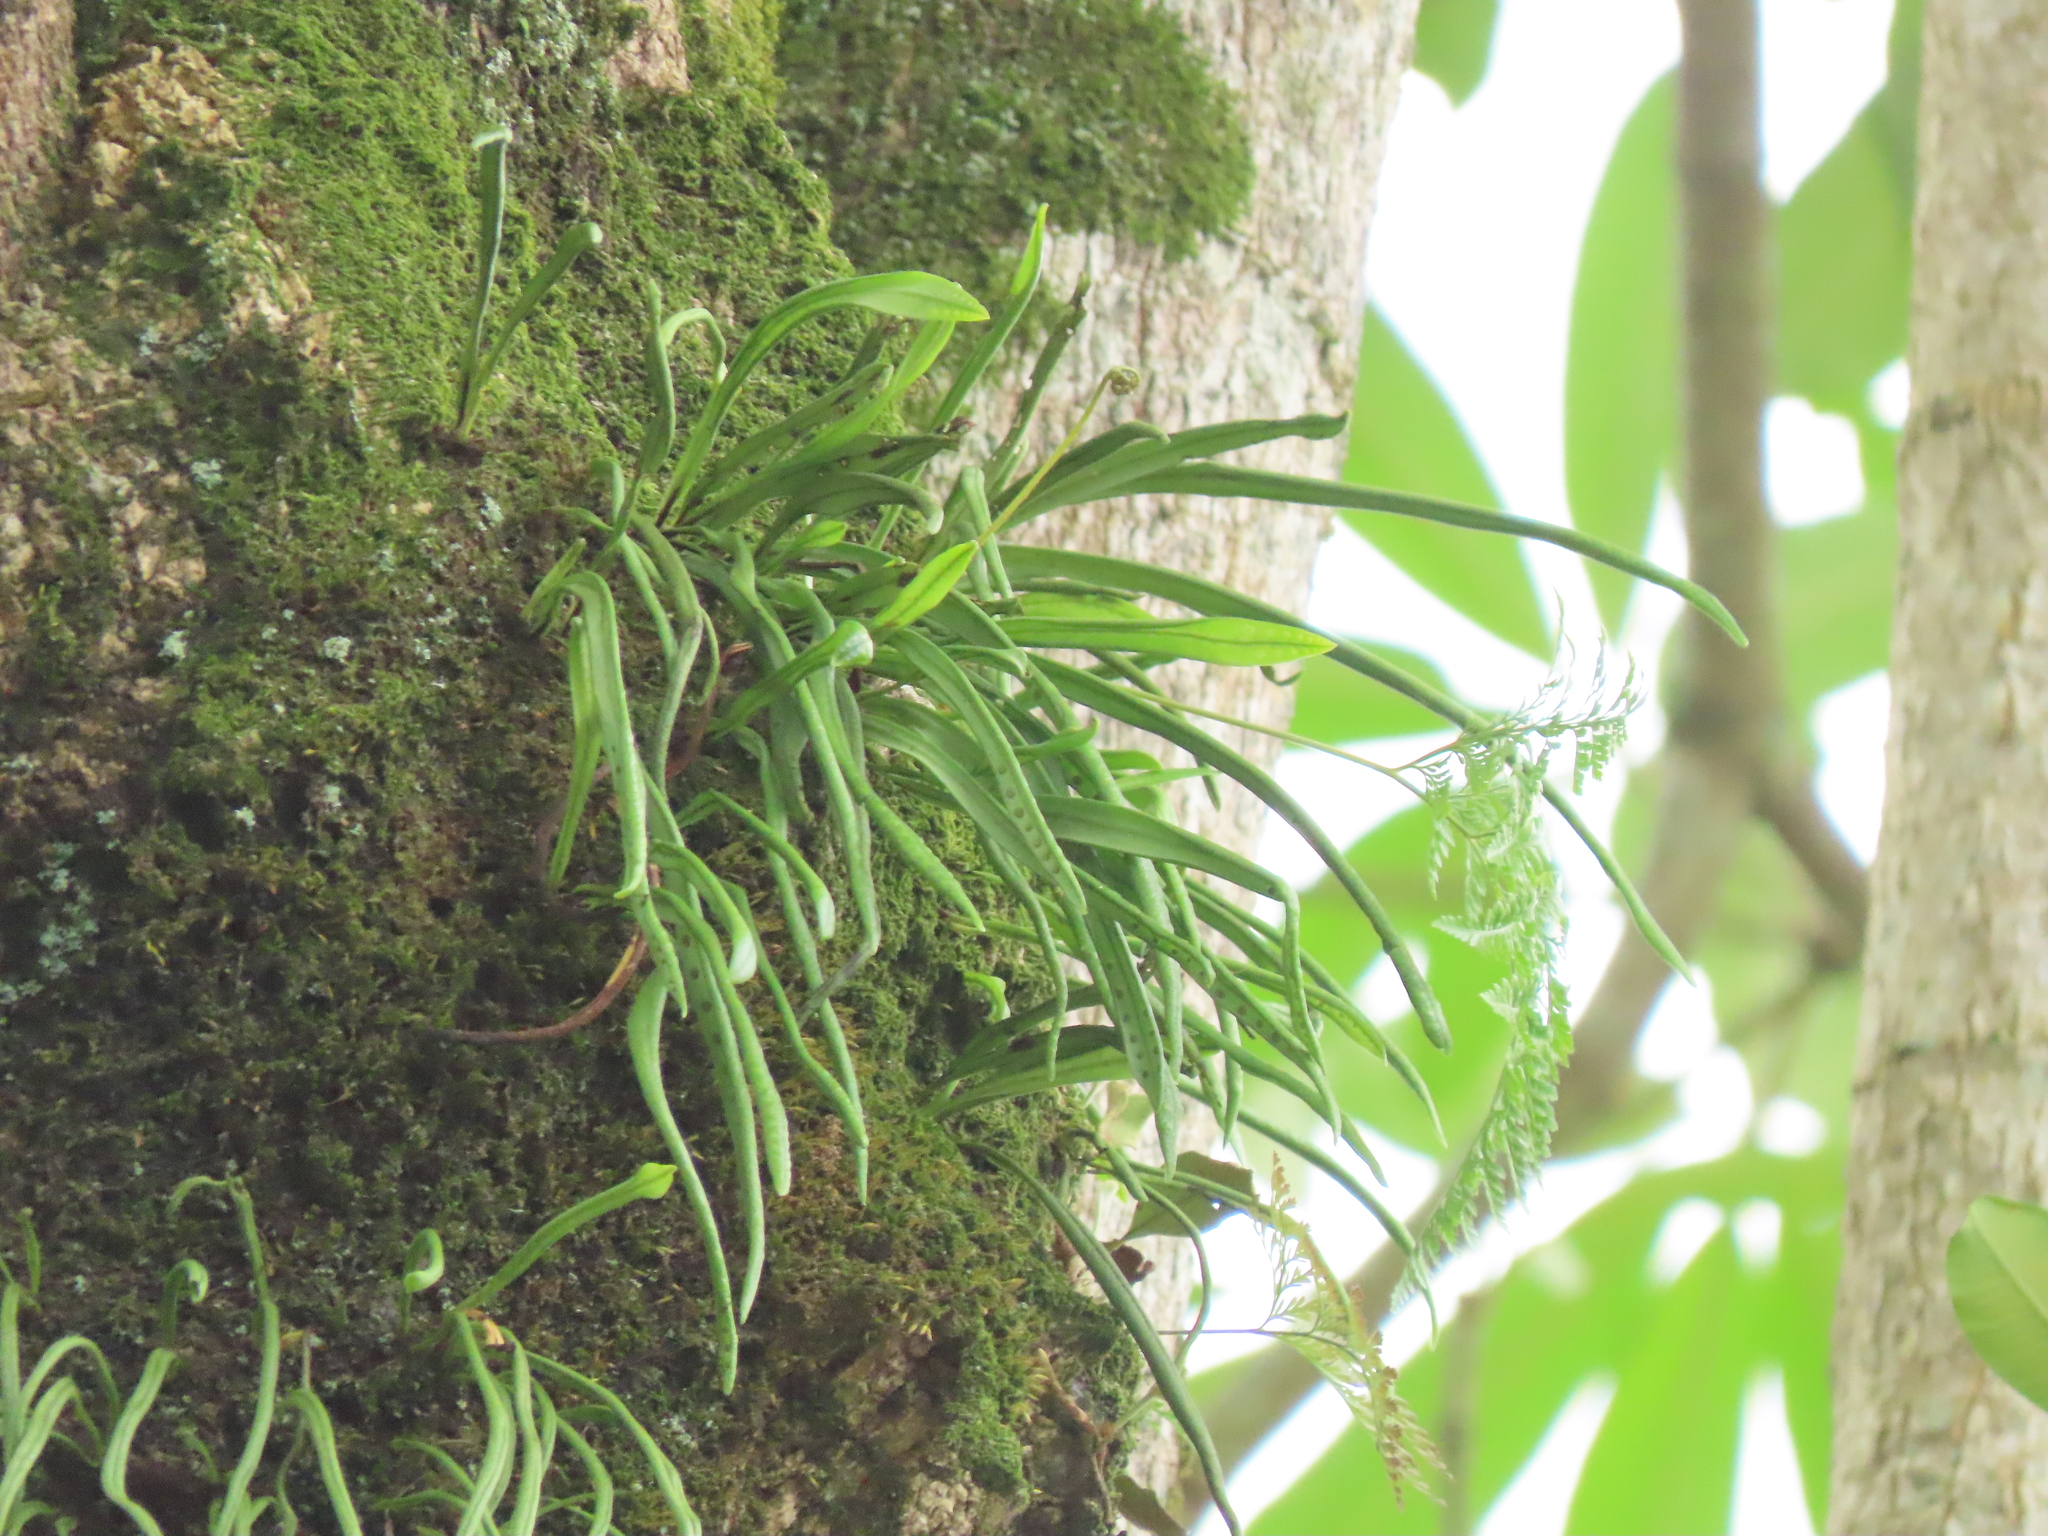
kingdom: Plantae
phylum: Tracheophyta
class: Polypodiopsida
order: Polypodiales
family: Polypodiaceae
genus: Lepisorus
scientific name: Lepisorus thunbergianus
